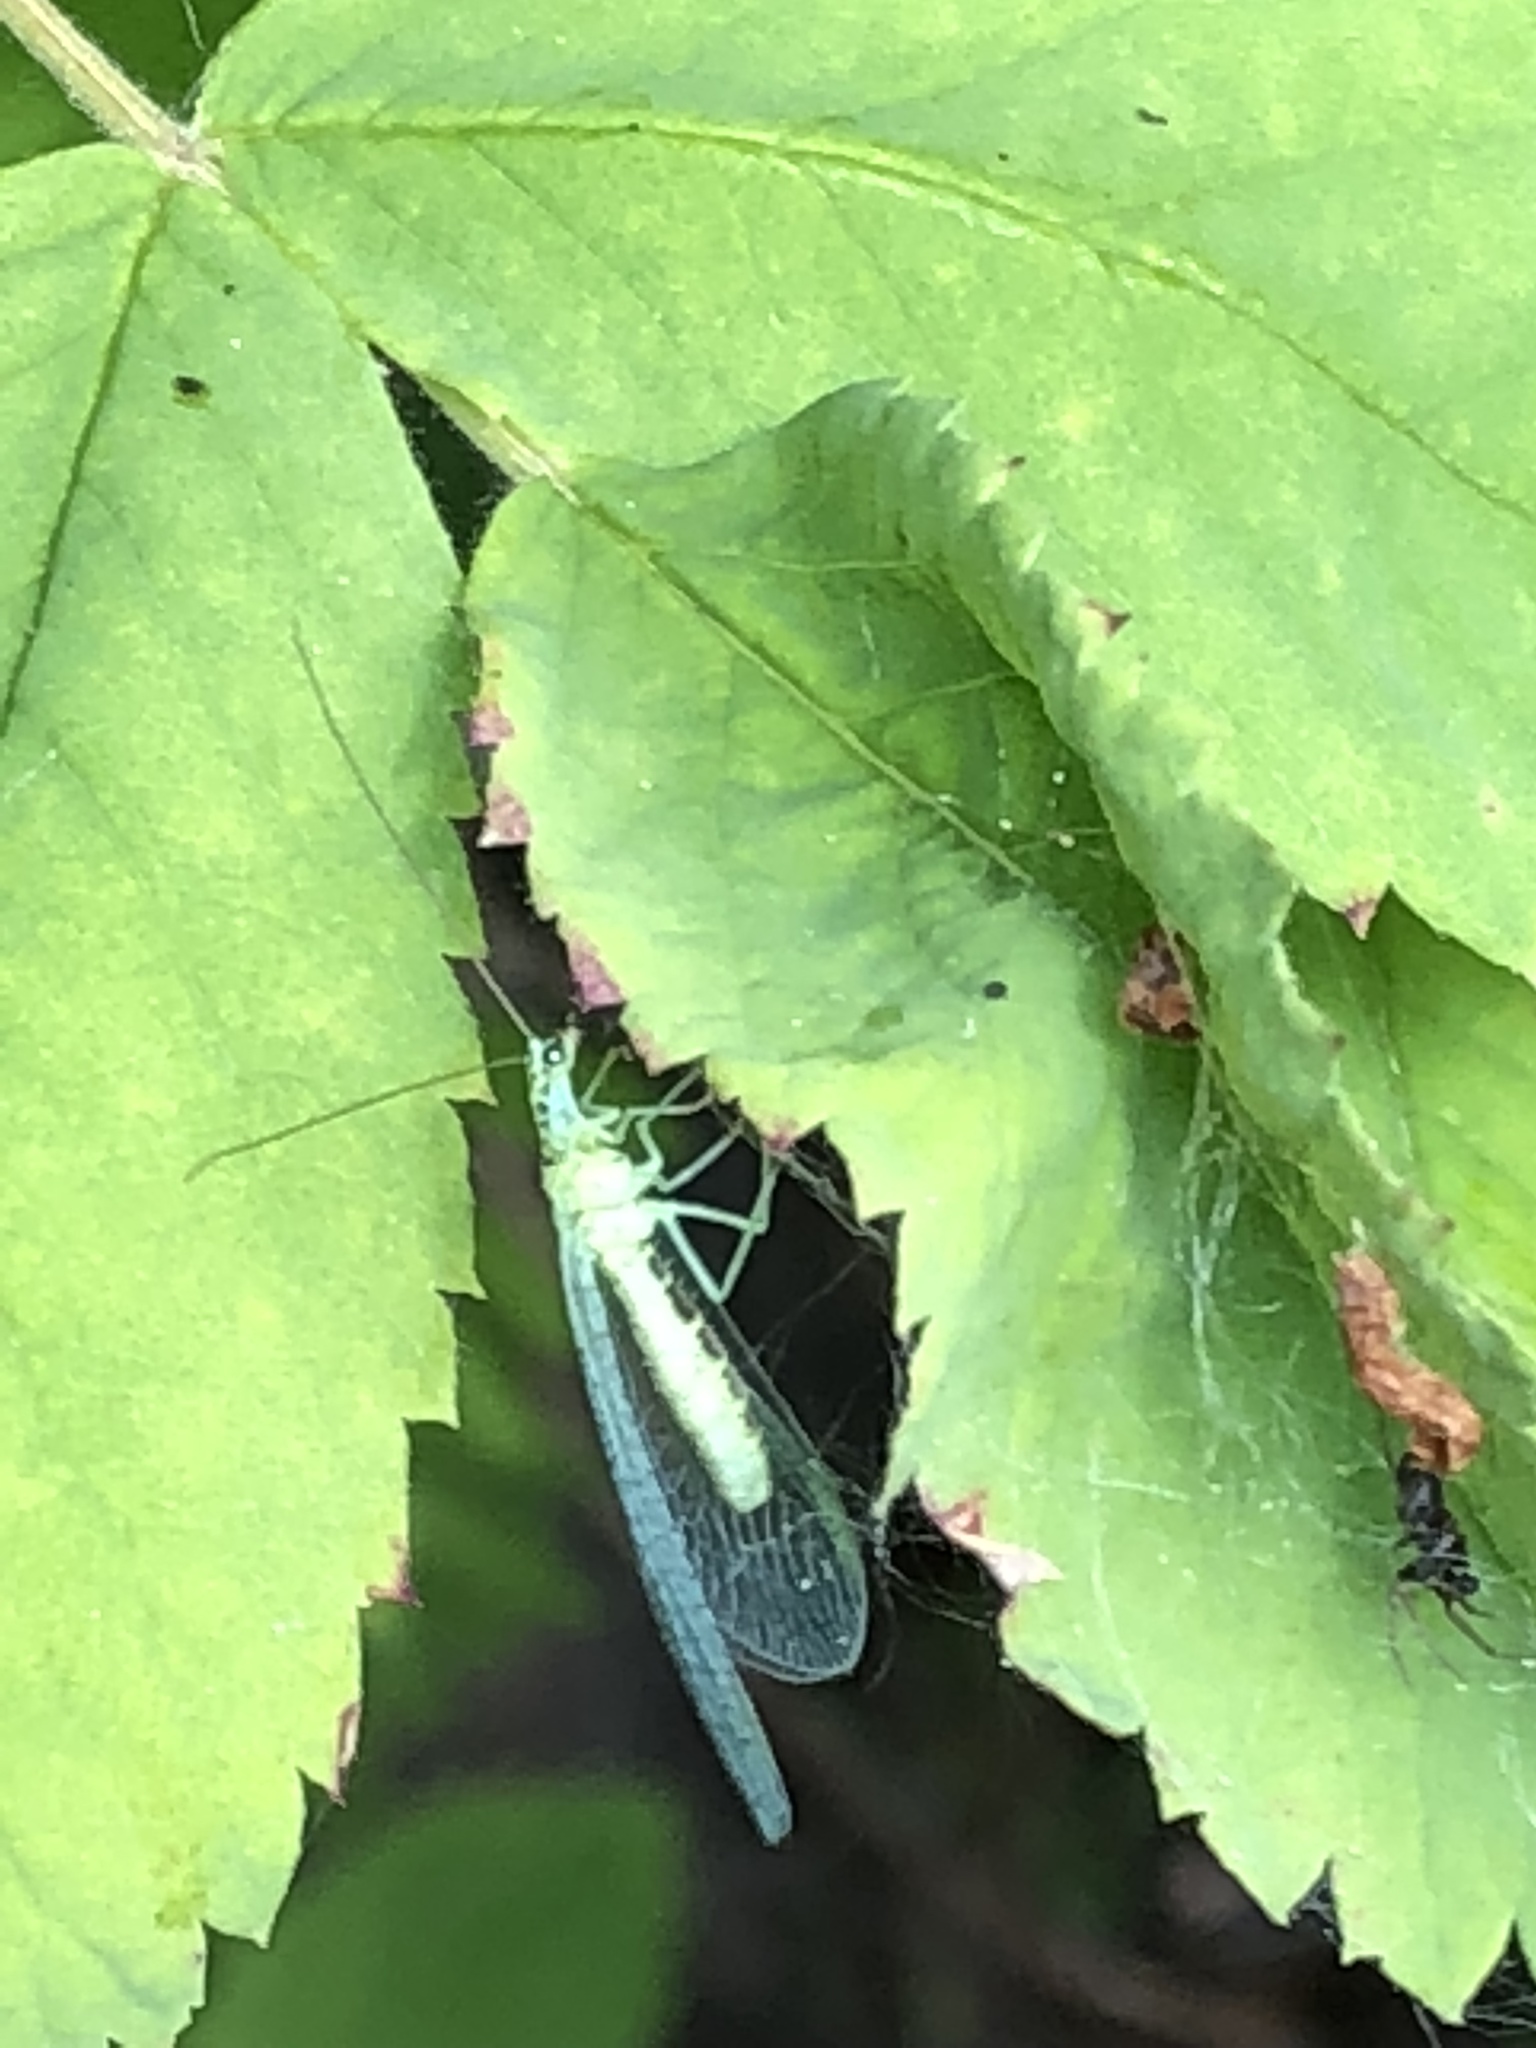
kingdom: Animalia
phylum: Arthropoda
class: Insecta
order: Neuroptera
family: Chrysopidae
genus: Chrysopa
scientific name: Chrysopa chi
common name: X-marked green lacewing
